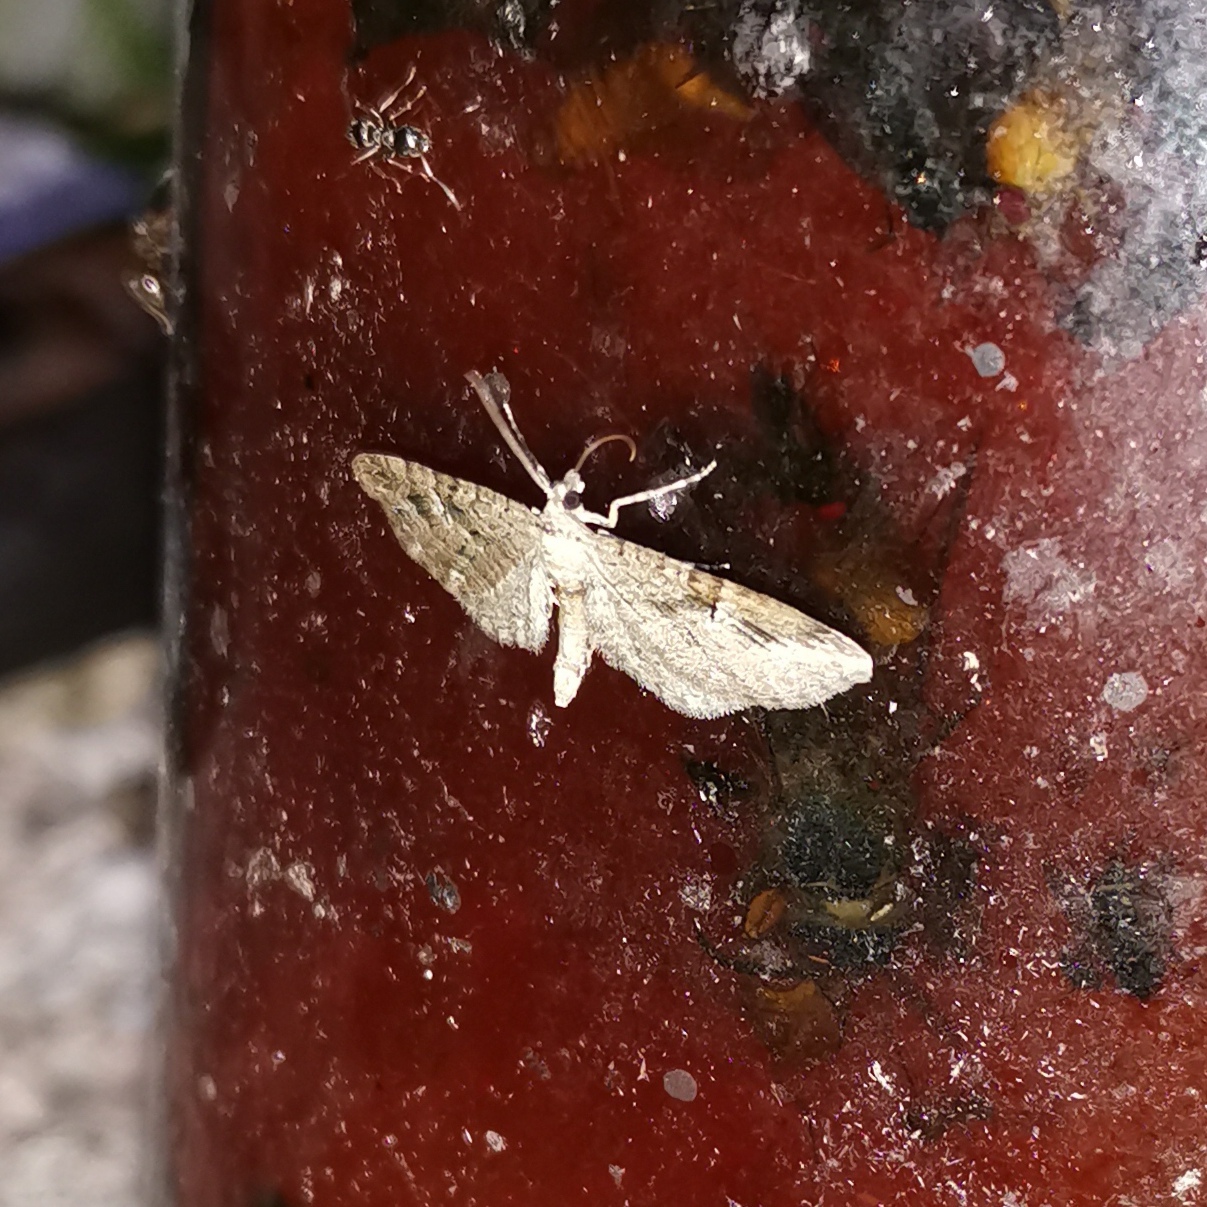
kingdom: Animalia
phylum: Arthropoda
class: Insecta
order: Lepidoptera
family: Geometridae
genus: Eupithecia
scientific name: Eupithecia pusillata
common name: Juniper pug
